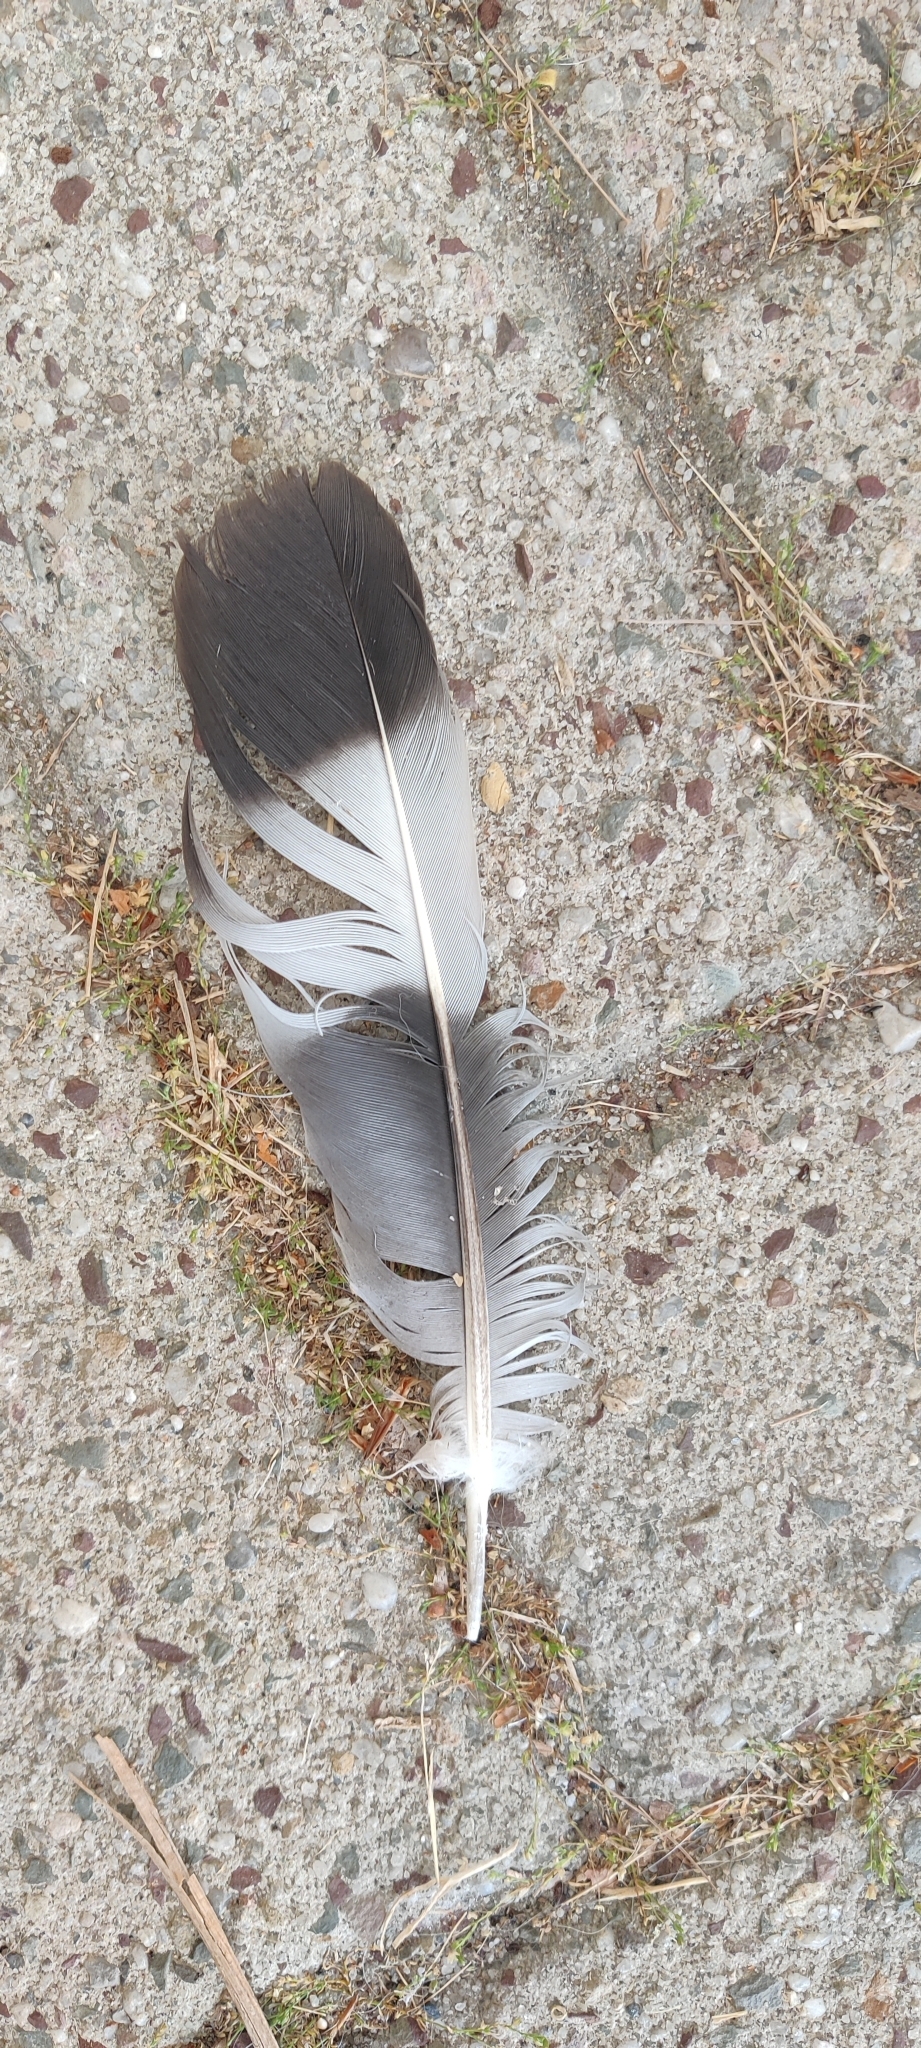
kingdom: Animalia
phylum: Chordata
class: Aves
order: Columbiformes
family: Columbidae
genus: Columba
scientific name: Columba palumbus
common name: Common wood pigeon
